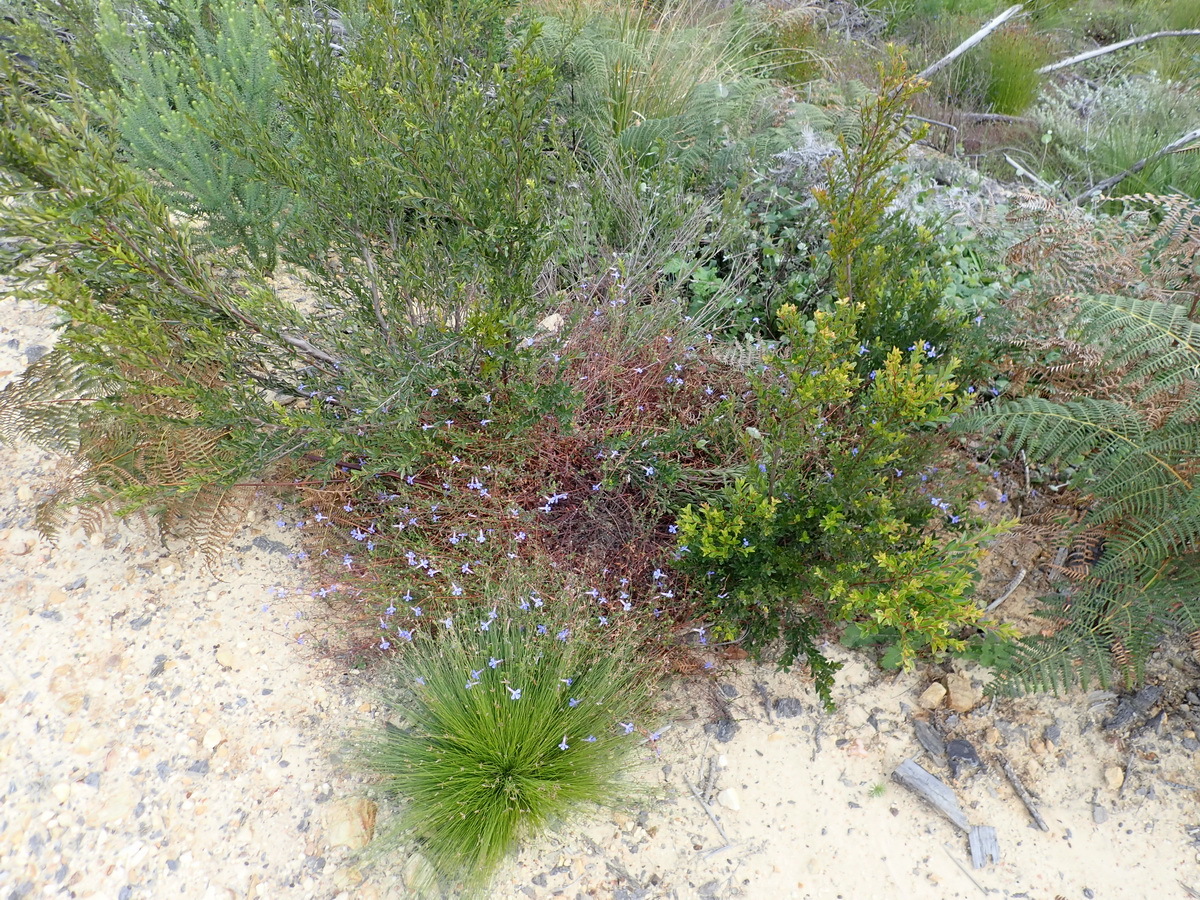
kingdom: Plantae
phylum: Tracheophyta
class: Magnoliopsida
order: Asterales
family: Campanulaceae
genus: Lobelia
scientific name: Lobelia neglecta
